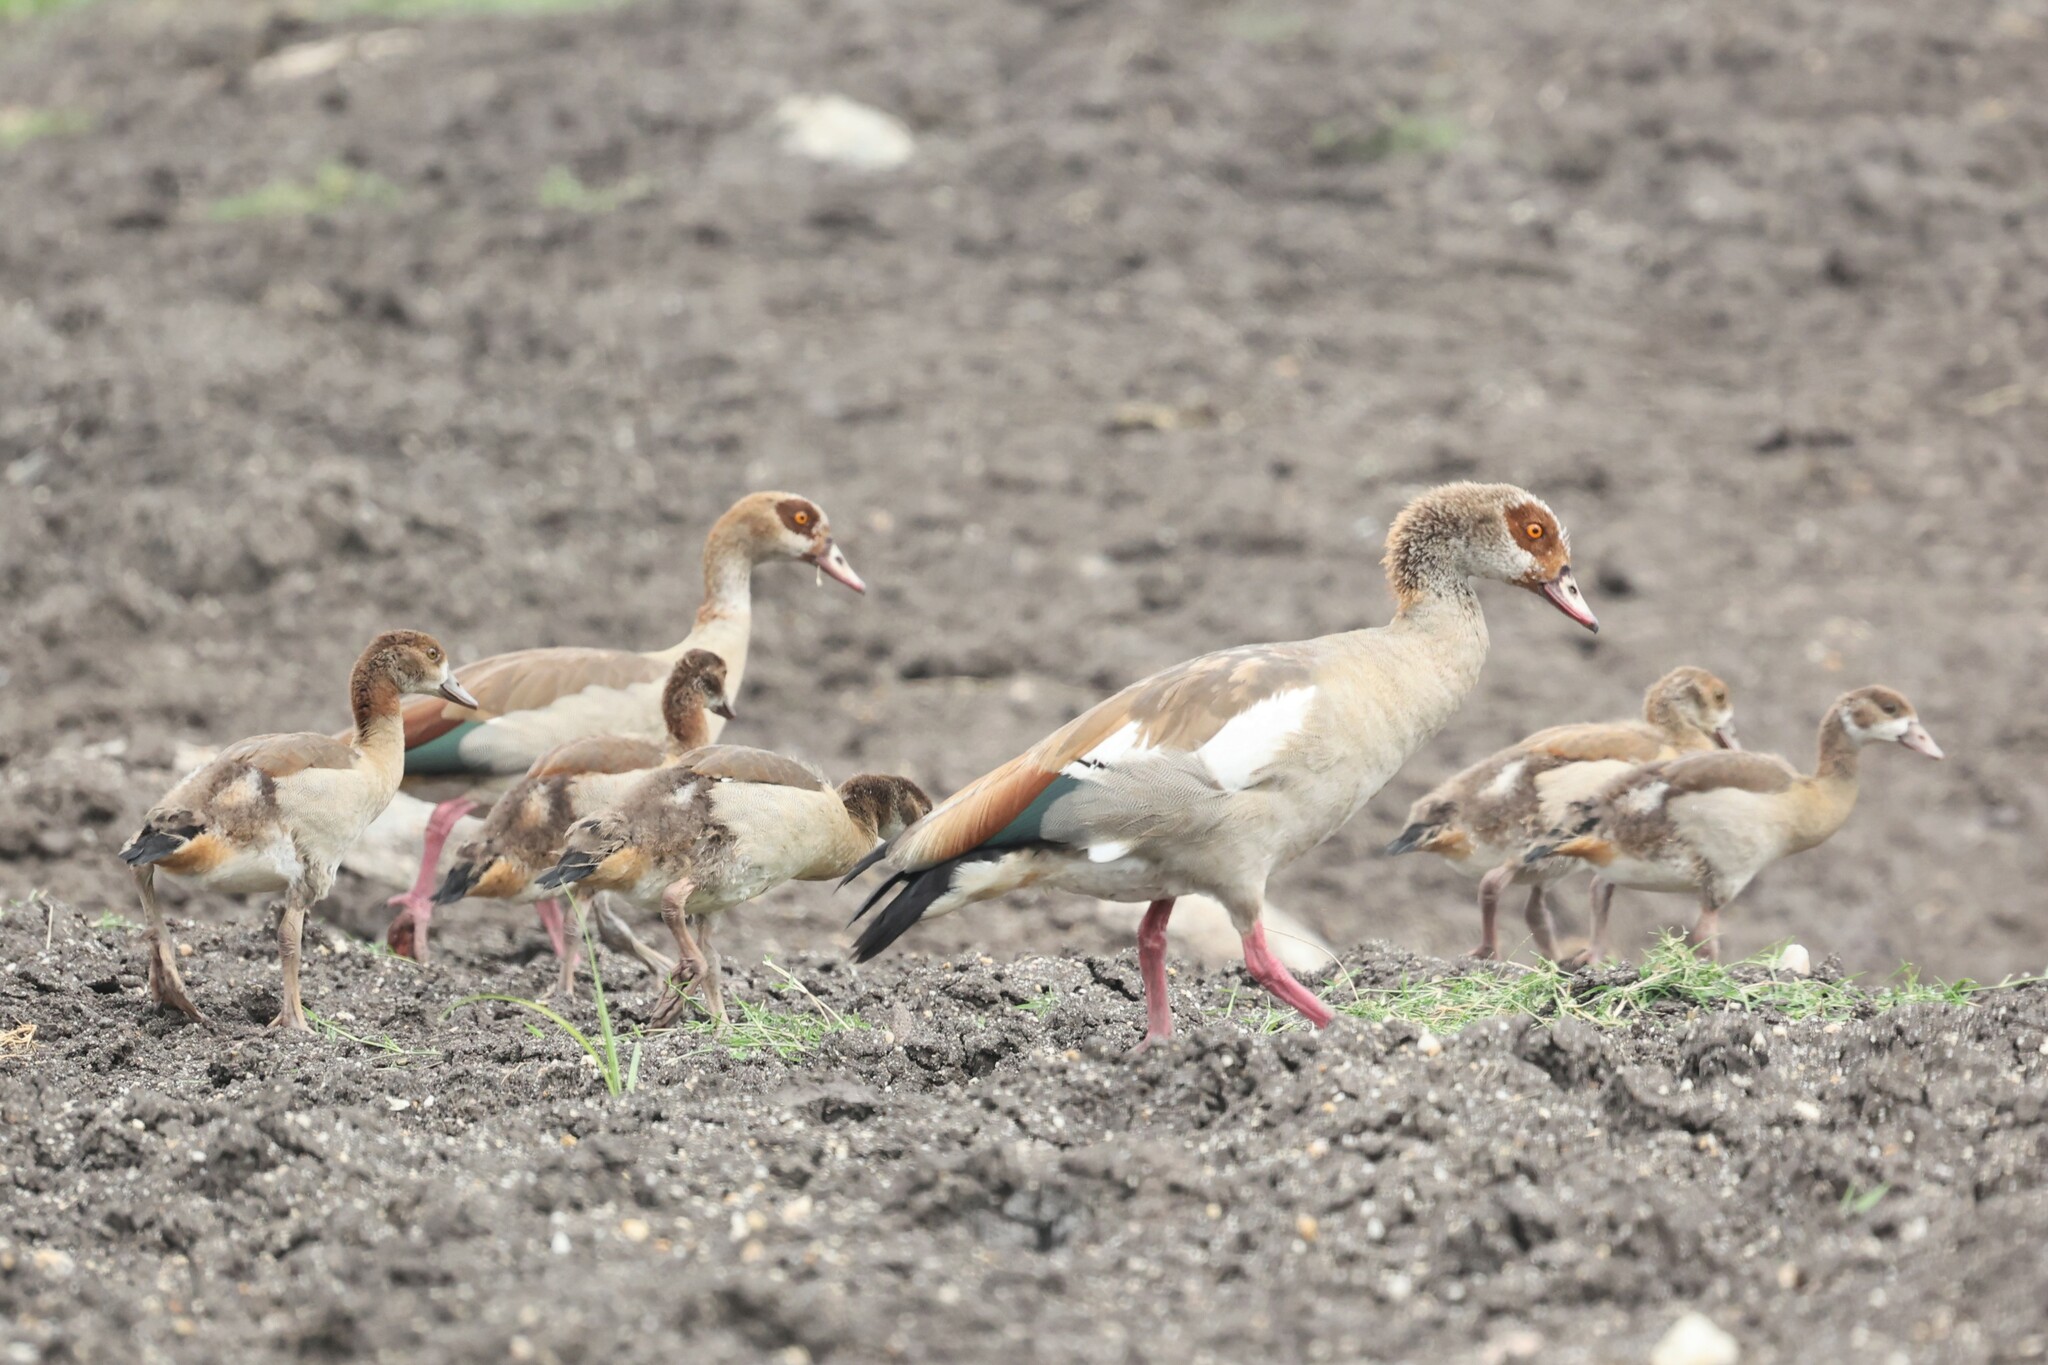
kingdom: Animalia
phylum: Chordata
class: Aves
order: Anseriformes
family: Anatidae
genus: Alopochen
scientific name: Alopochen aegyptiaca
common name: Egyptian goose
